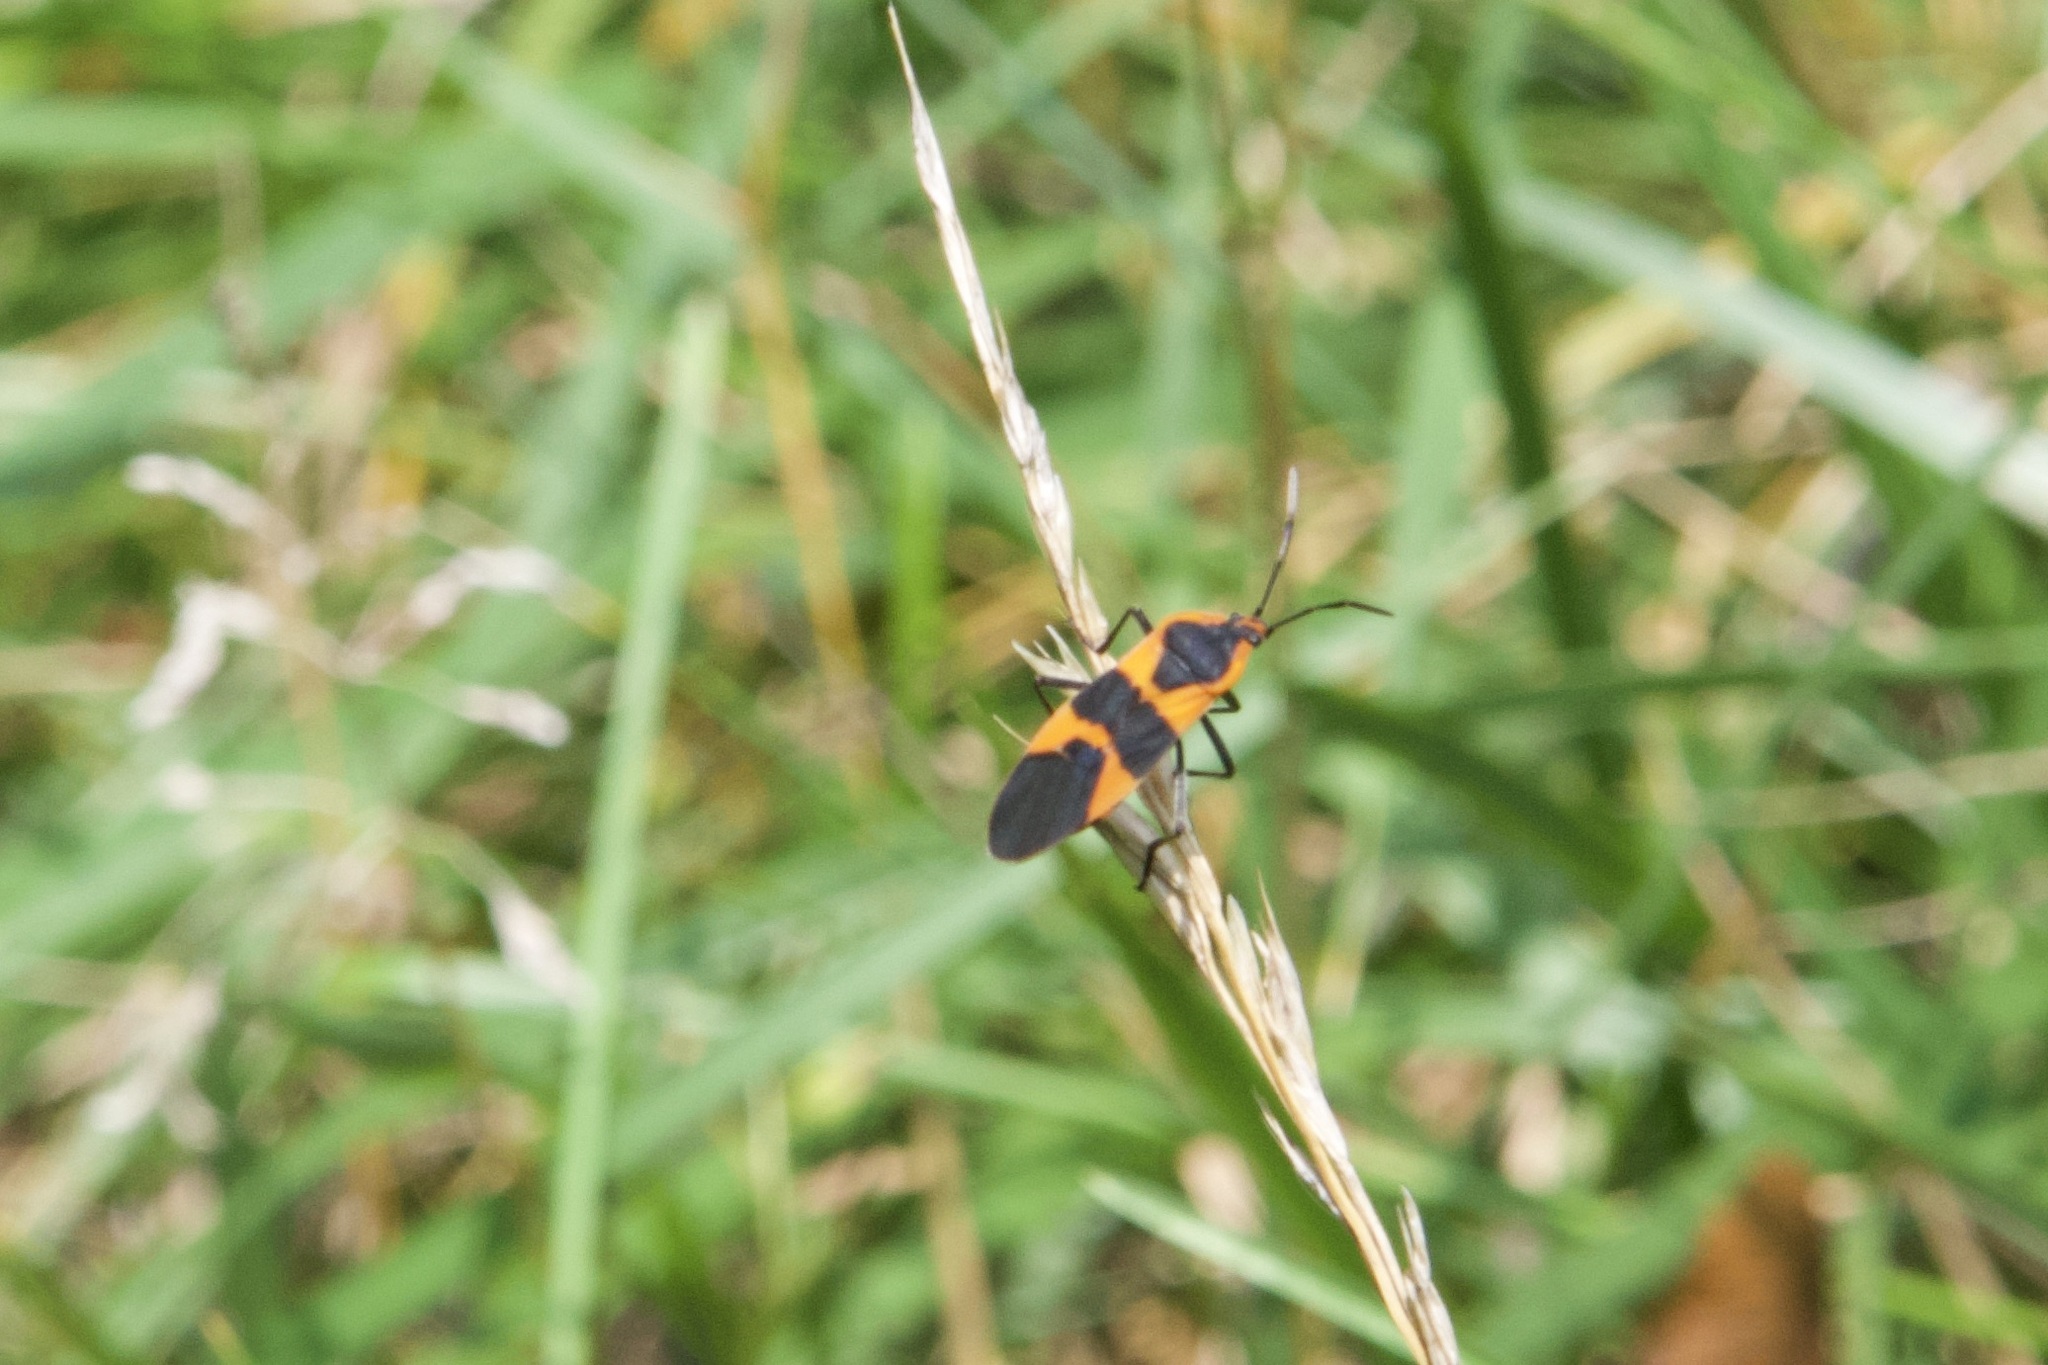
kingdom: Animalia
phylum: Arthropoda
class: Insecta
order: Hemiptera
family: Lygaeidae
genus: Oncopeltus
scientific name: Oncopeltus fasciatus
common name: Large milkweed bug
